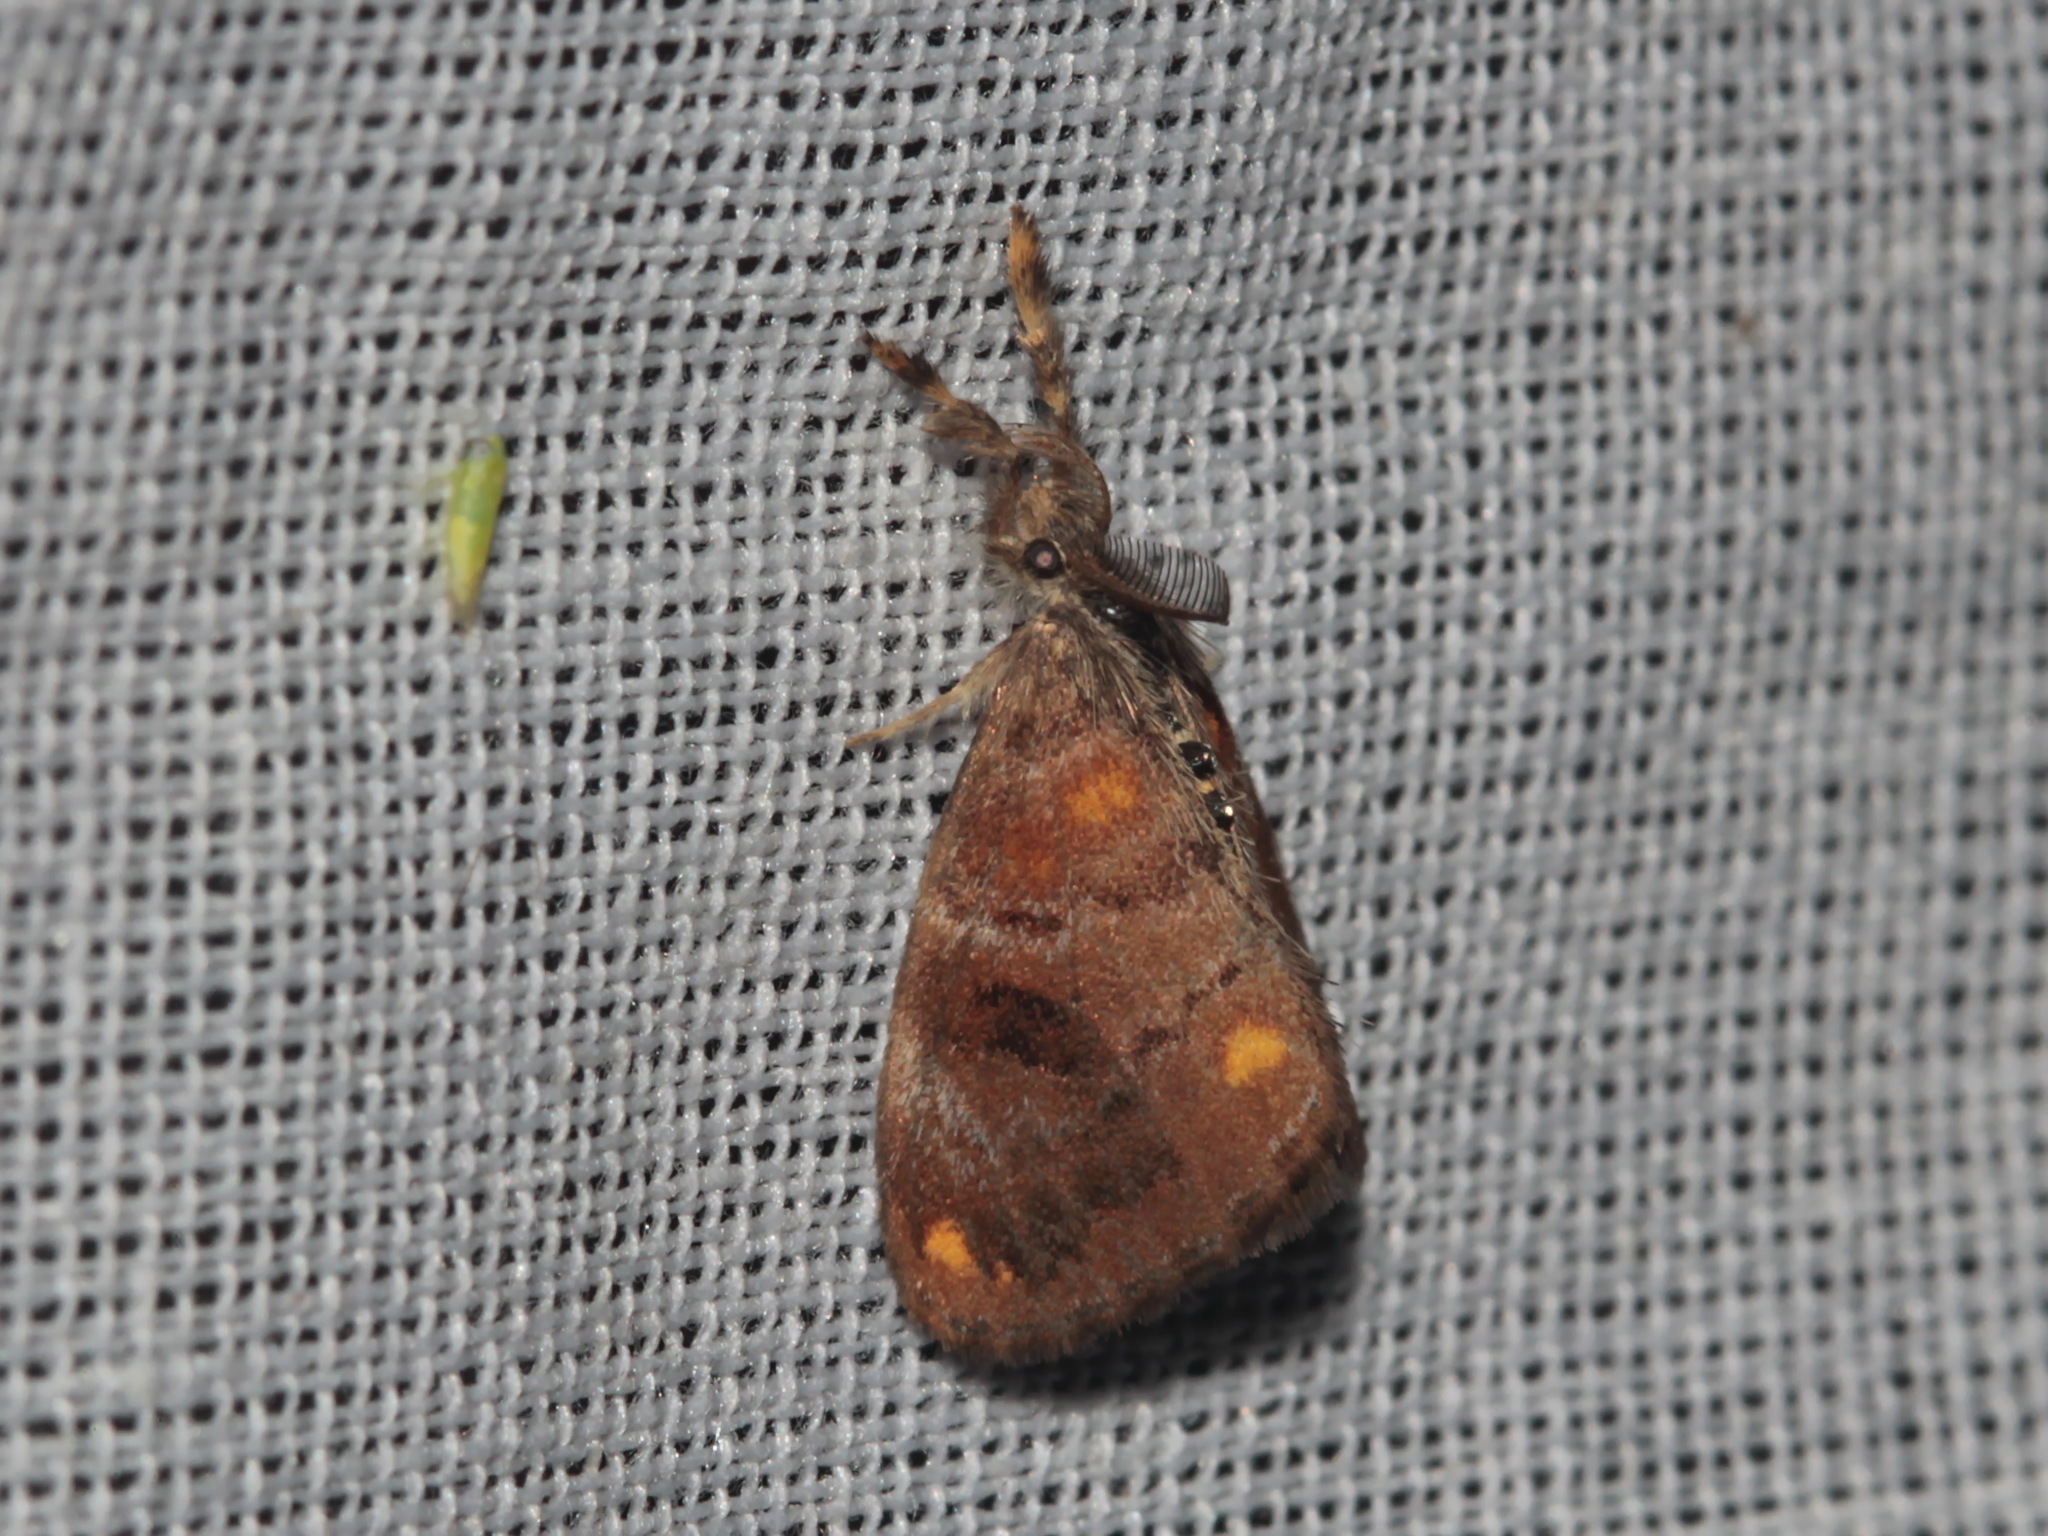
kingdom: Animalia
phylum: Arthropoda
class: Insecta
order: Lepidoptera
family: Erebidae
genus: Clethrogyna
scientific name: Clethrogyna turbata
